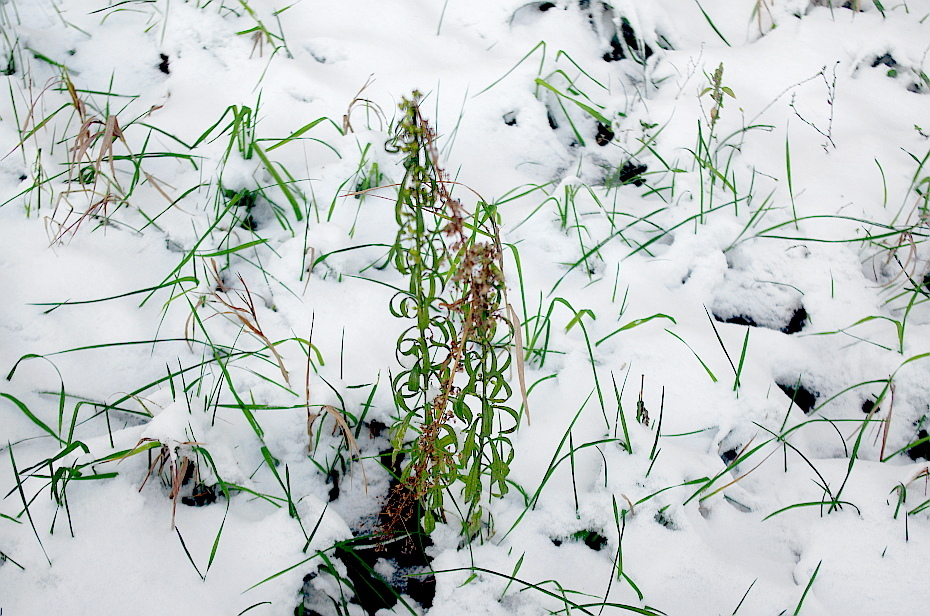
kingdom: Plantae
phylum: Tracheophyta
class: Magnoliopsida
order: Asterales
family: Asteraceae
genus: Erigeron
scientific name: Erigeron canadensis
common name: Canadian fleabane
